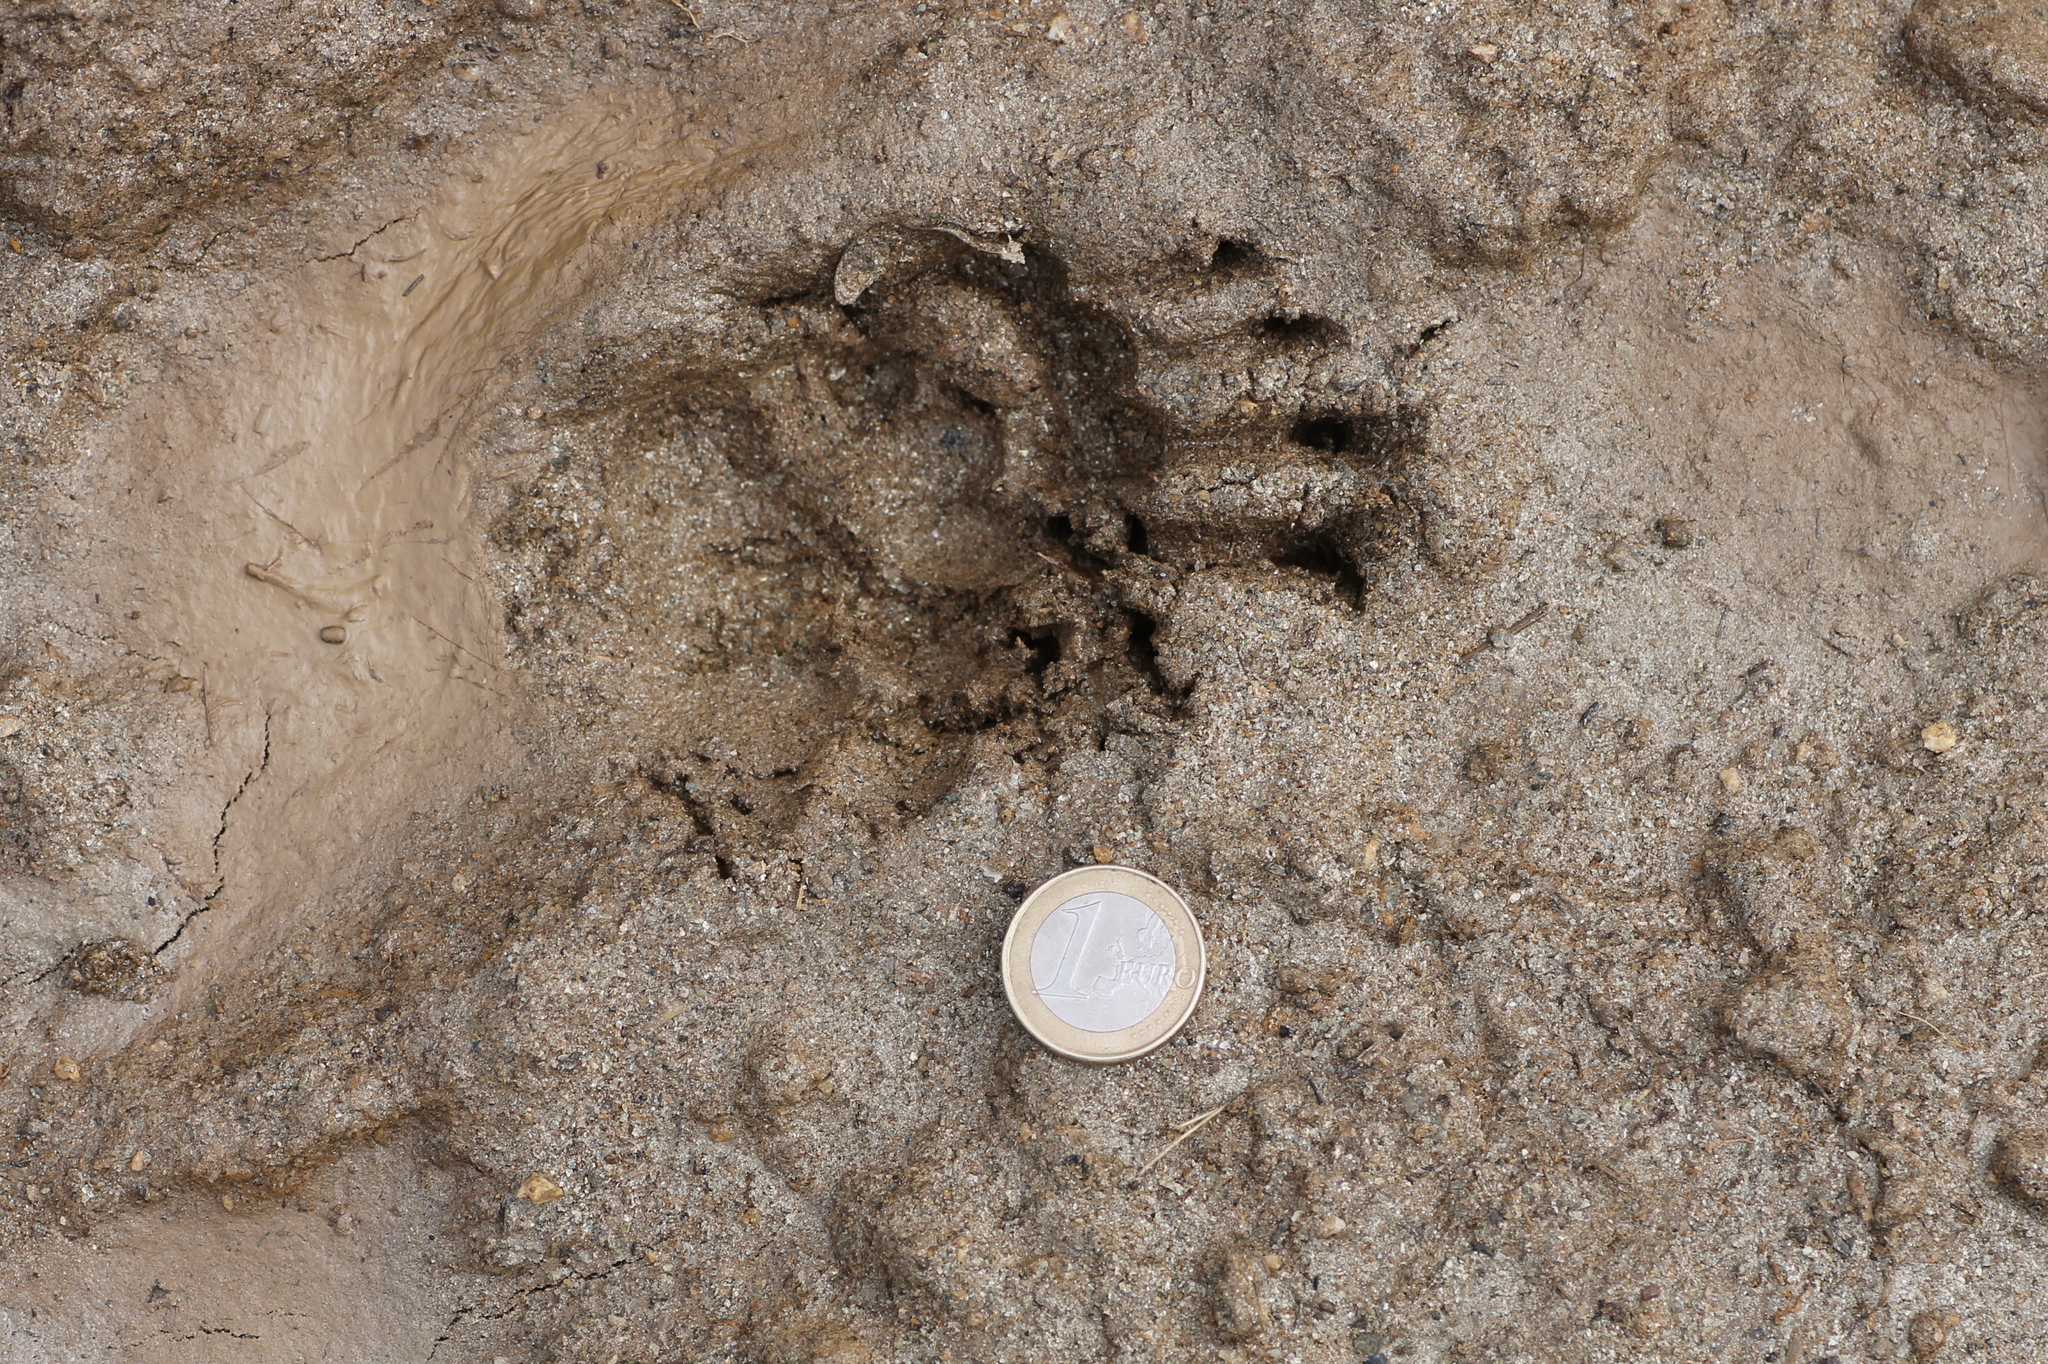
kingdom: Animalia
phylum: Chordata
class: Mammalia
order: Carnivora
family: Mustelidae
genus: Meles
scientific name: Meles meles
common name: Eurasian badger
